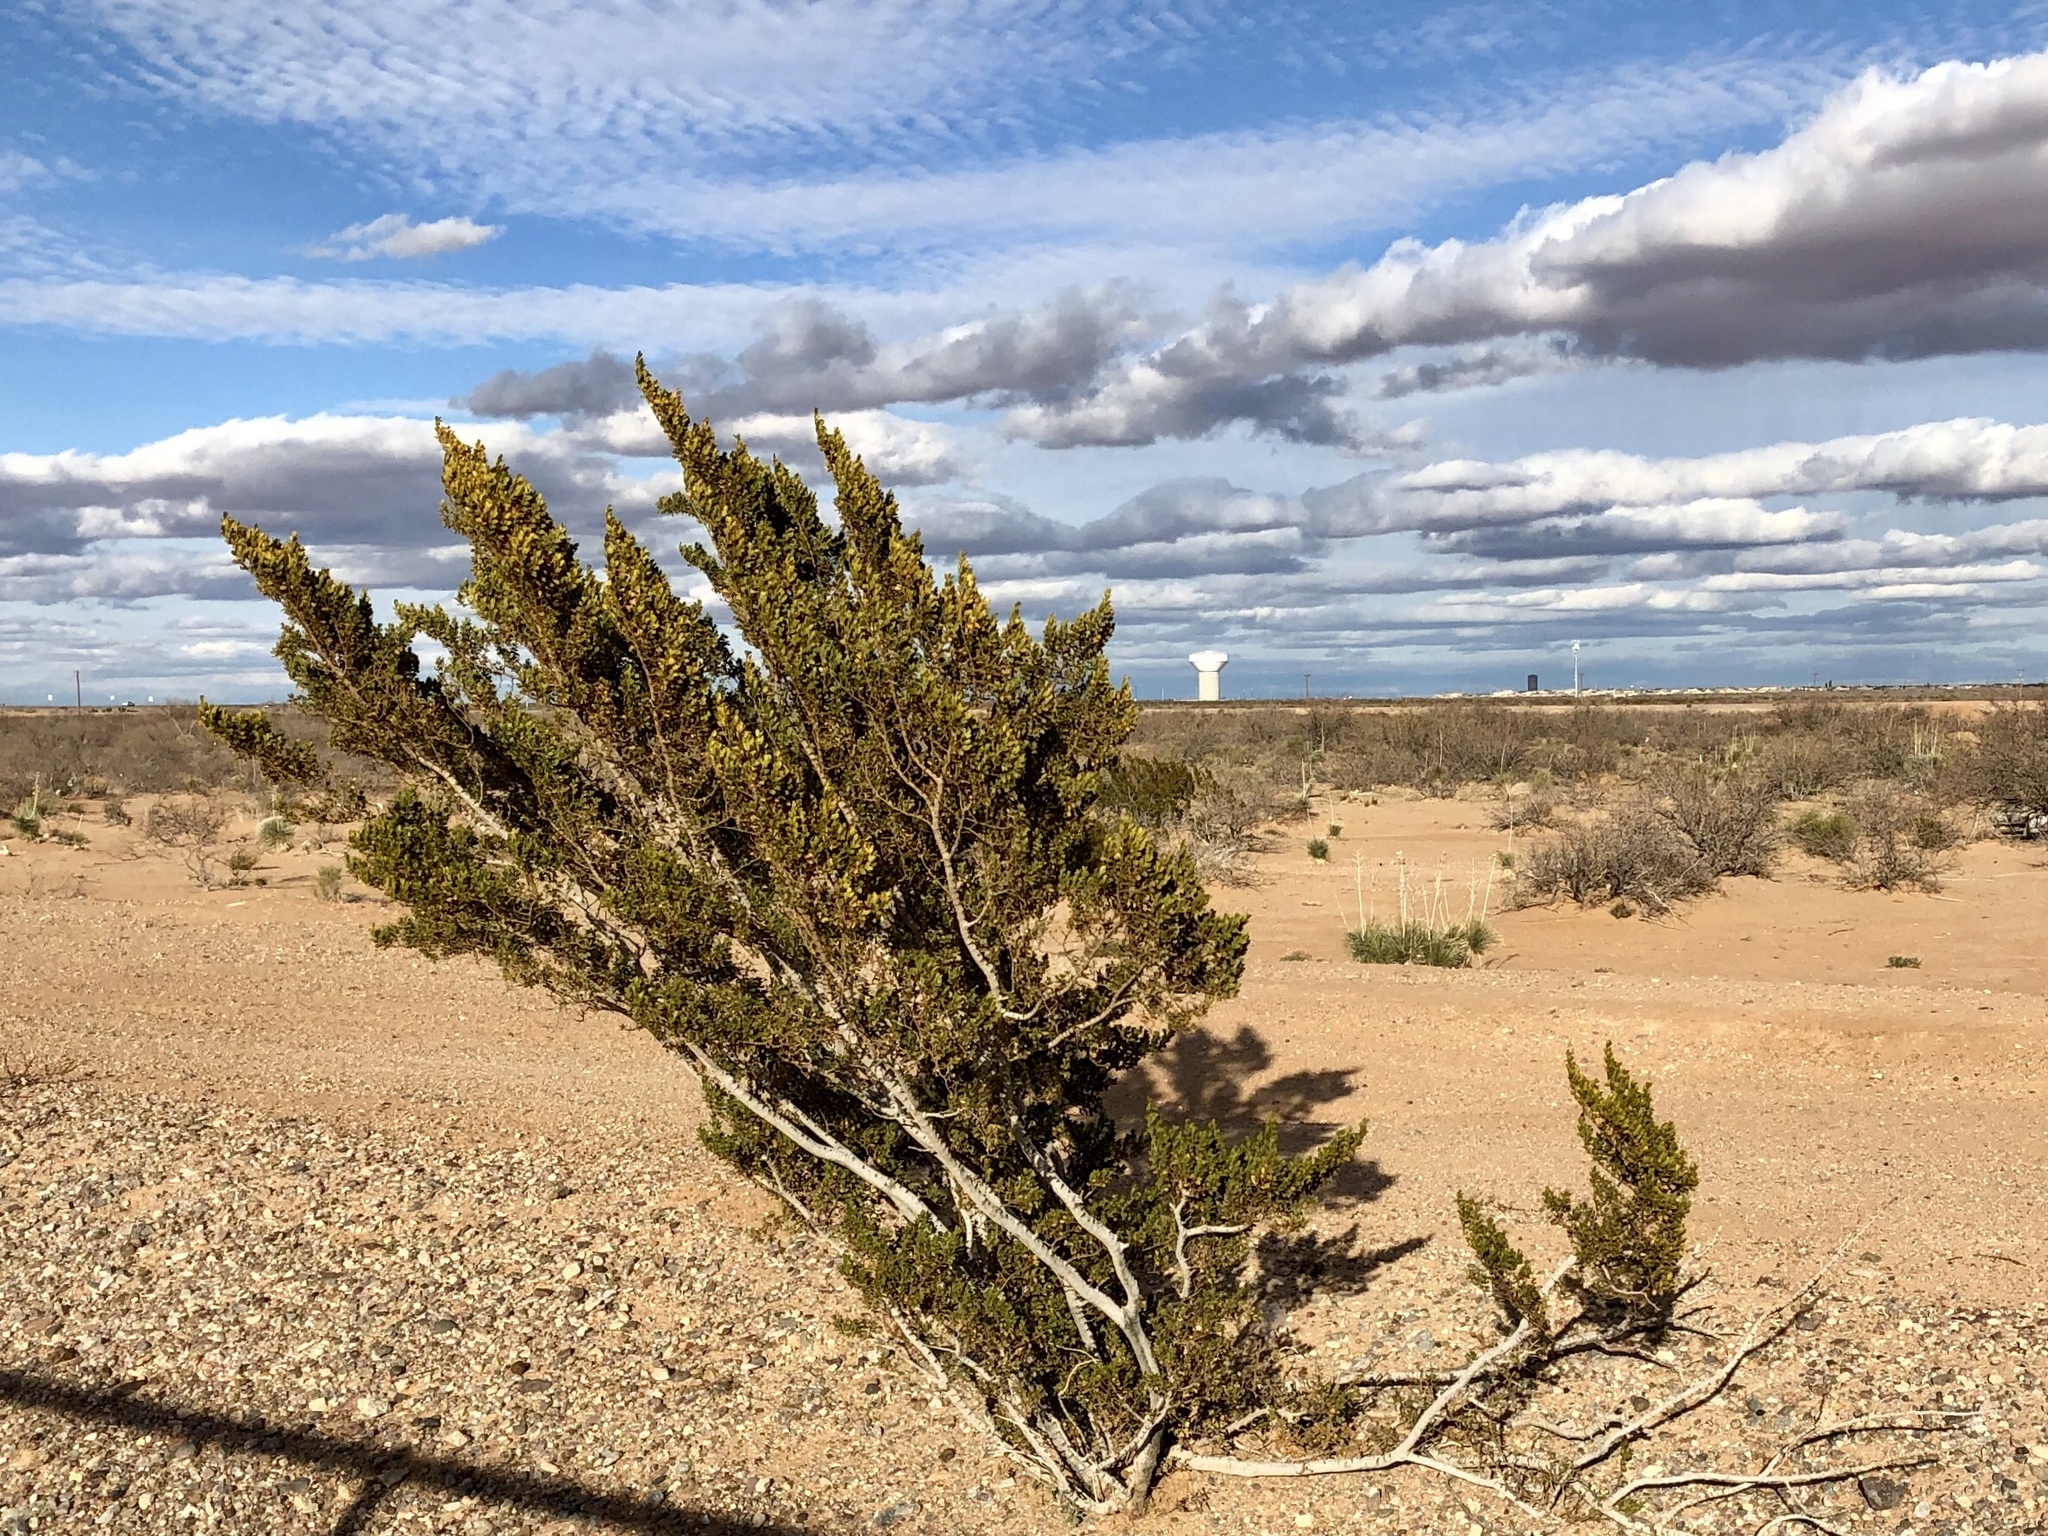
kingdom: Plantae
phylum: Tracheophyta
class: Magnoliopsida
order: Zygophyllales
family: Zygophyllaceae
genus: Larrea
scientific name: Larrea tridentata
